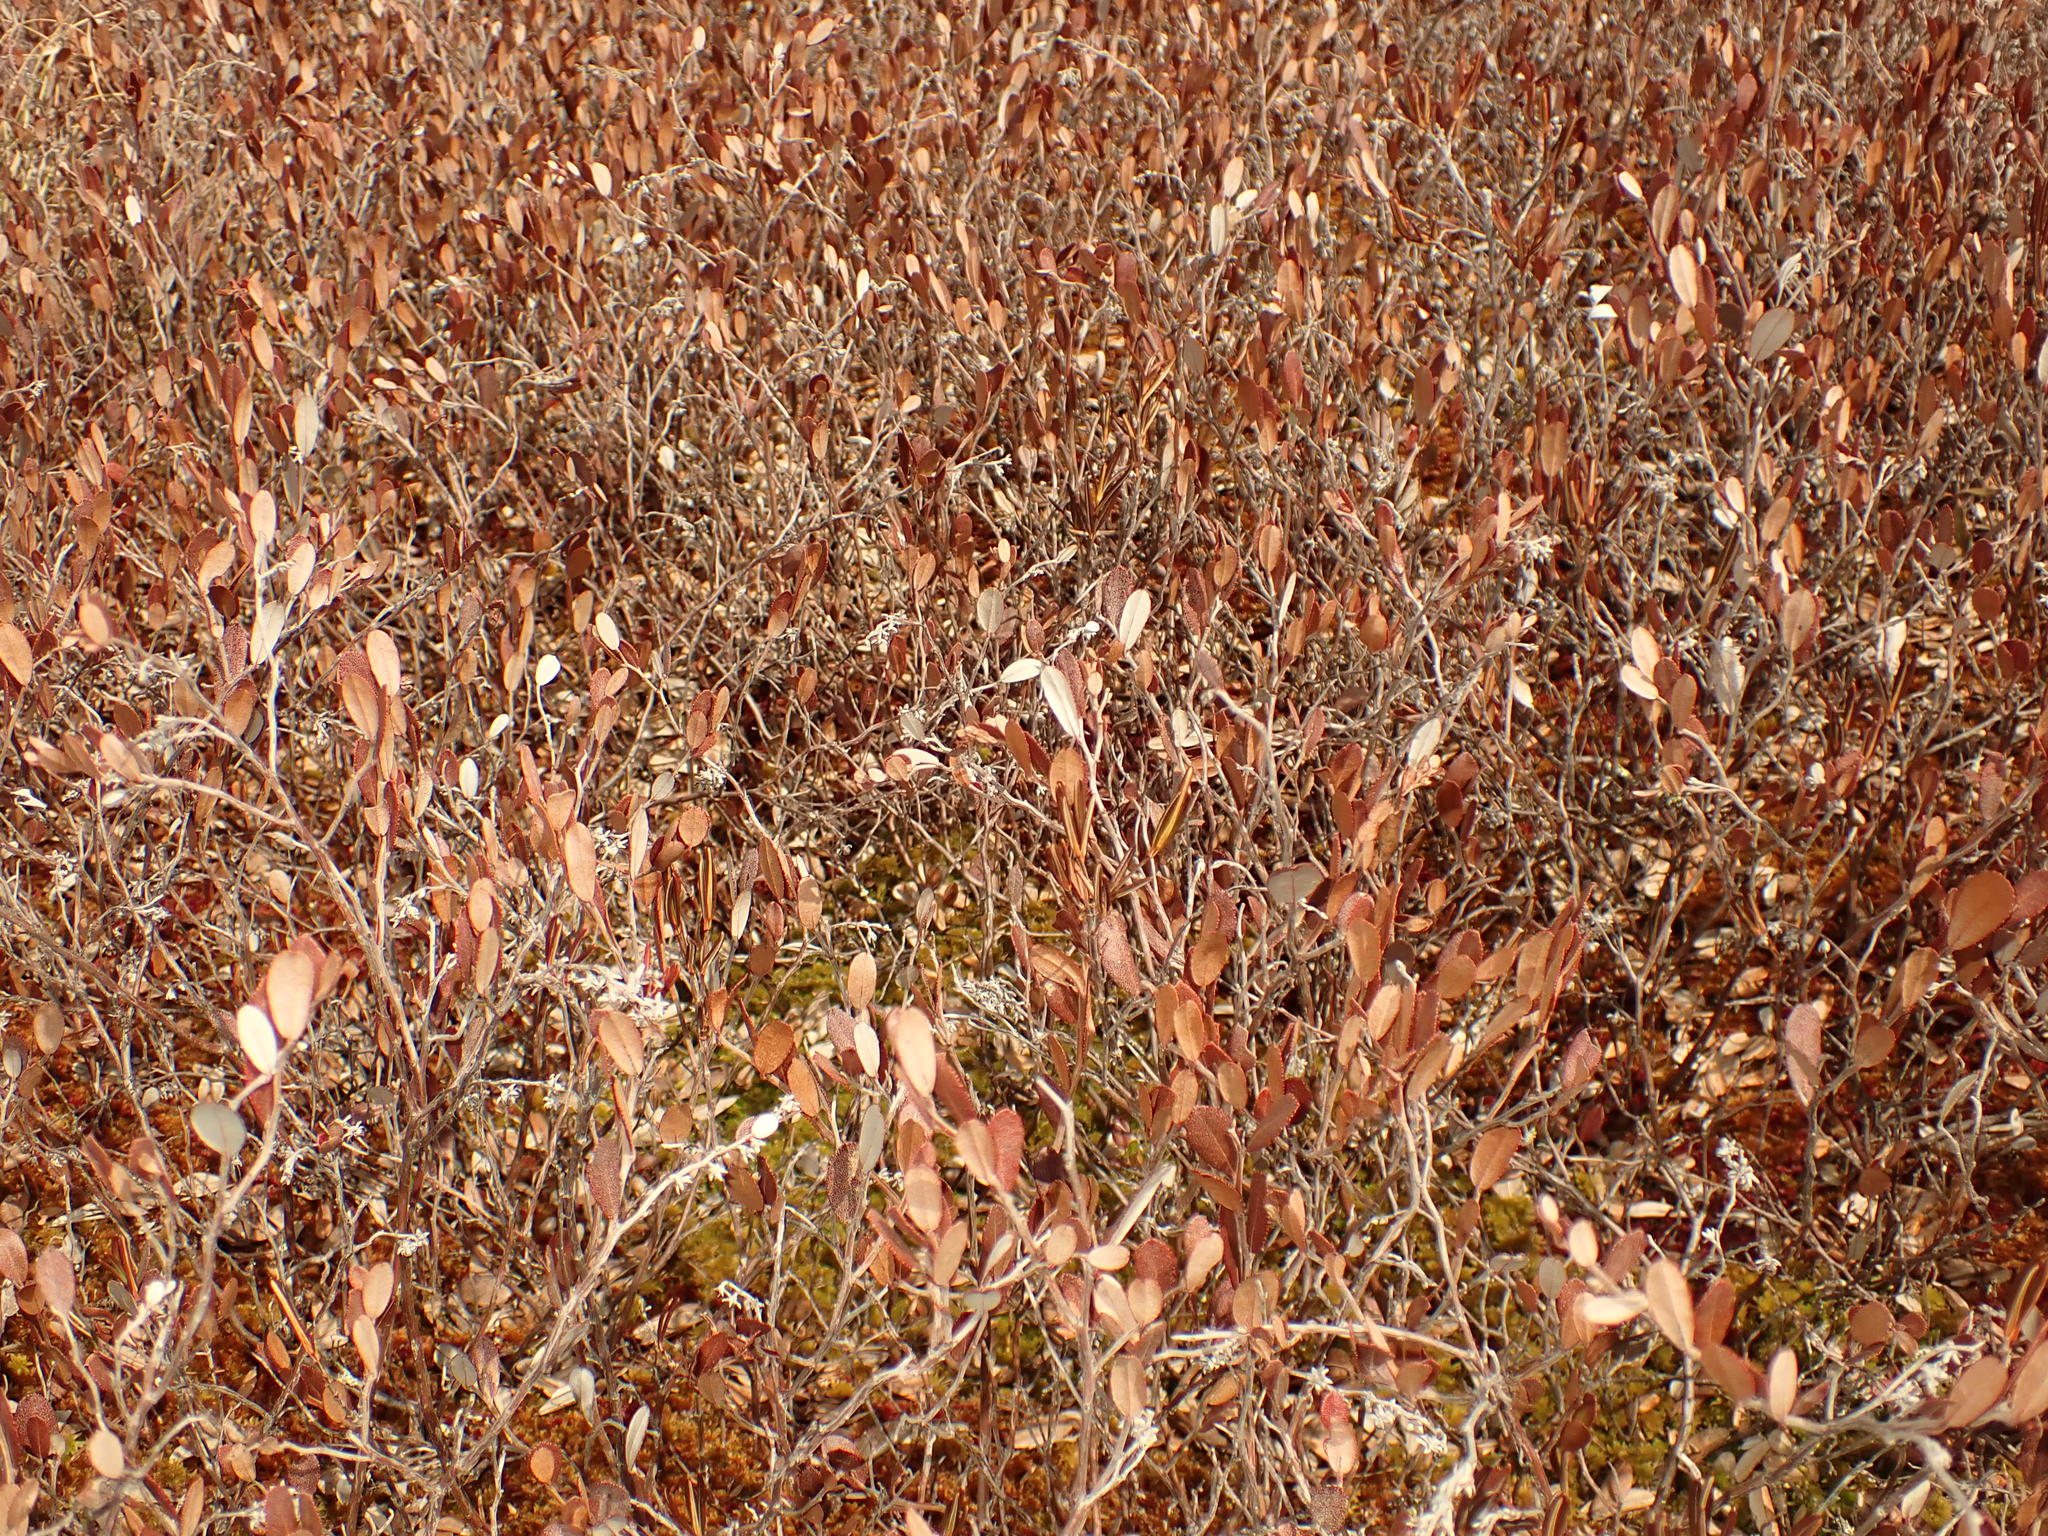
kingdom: Plantae
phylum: Tracheophyta
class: Magnoliopsida
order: Ericales
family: Ericaceae
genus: Chamaedaphne
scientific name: Chamaedaphne calyculata
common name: Leatherleaf
